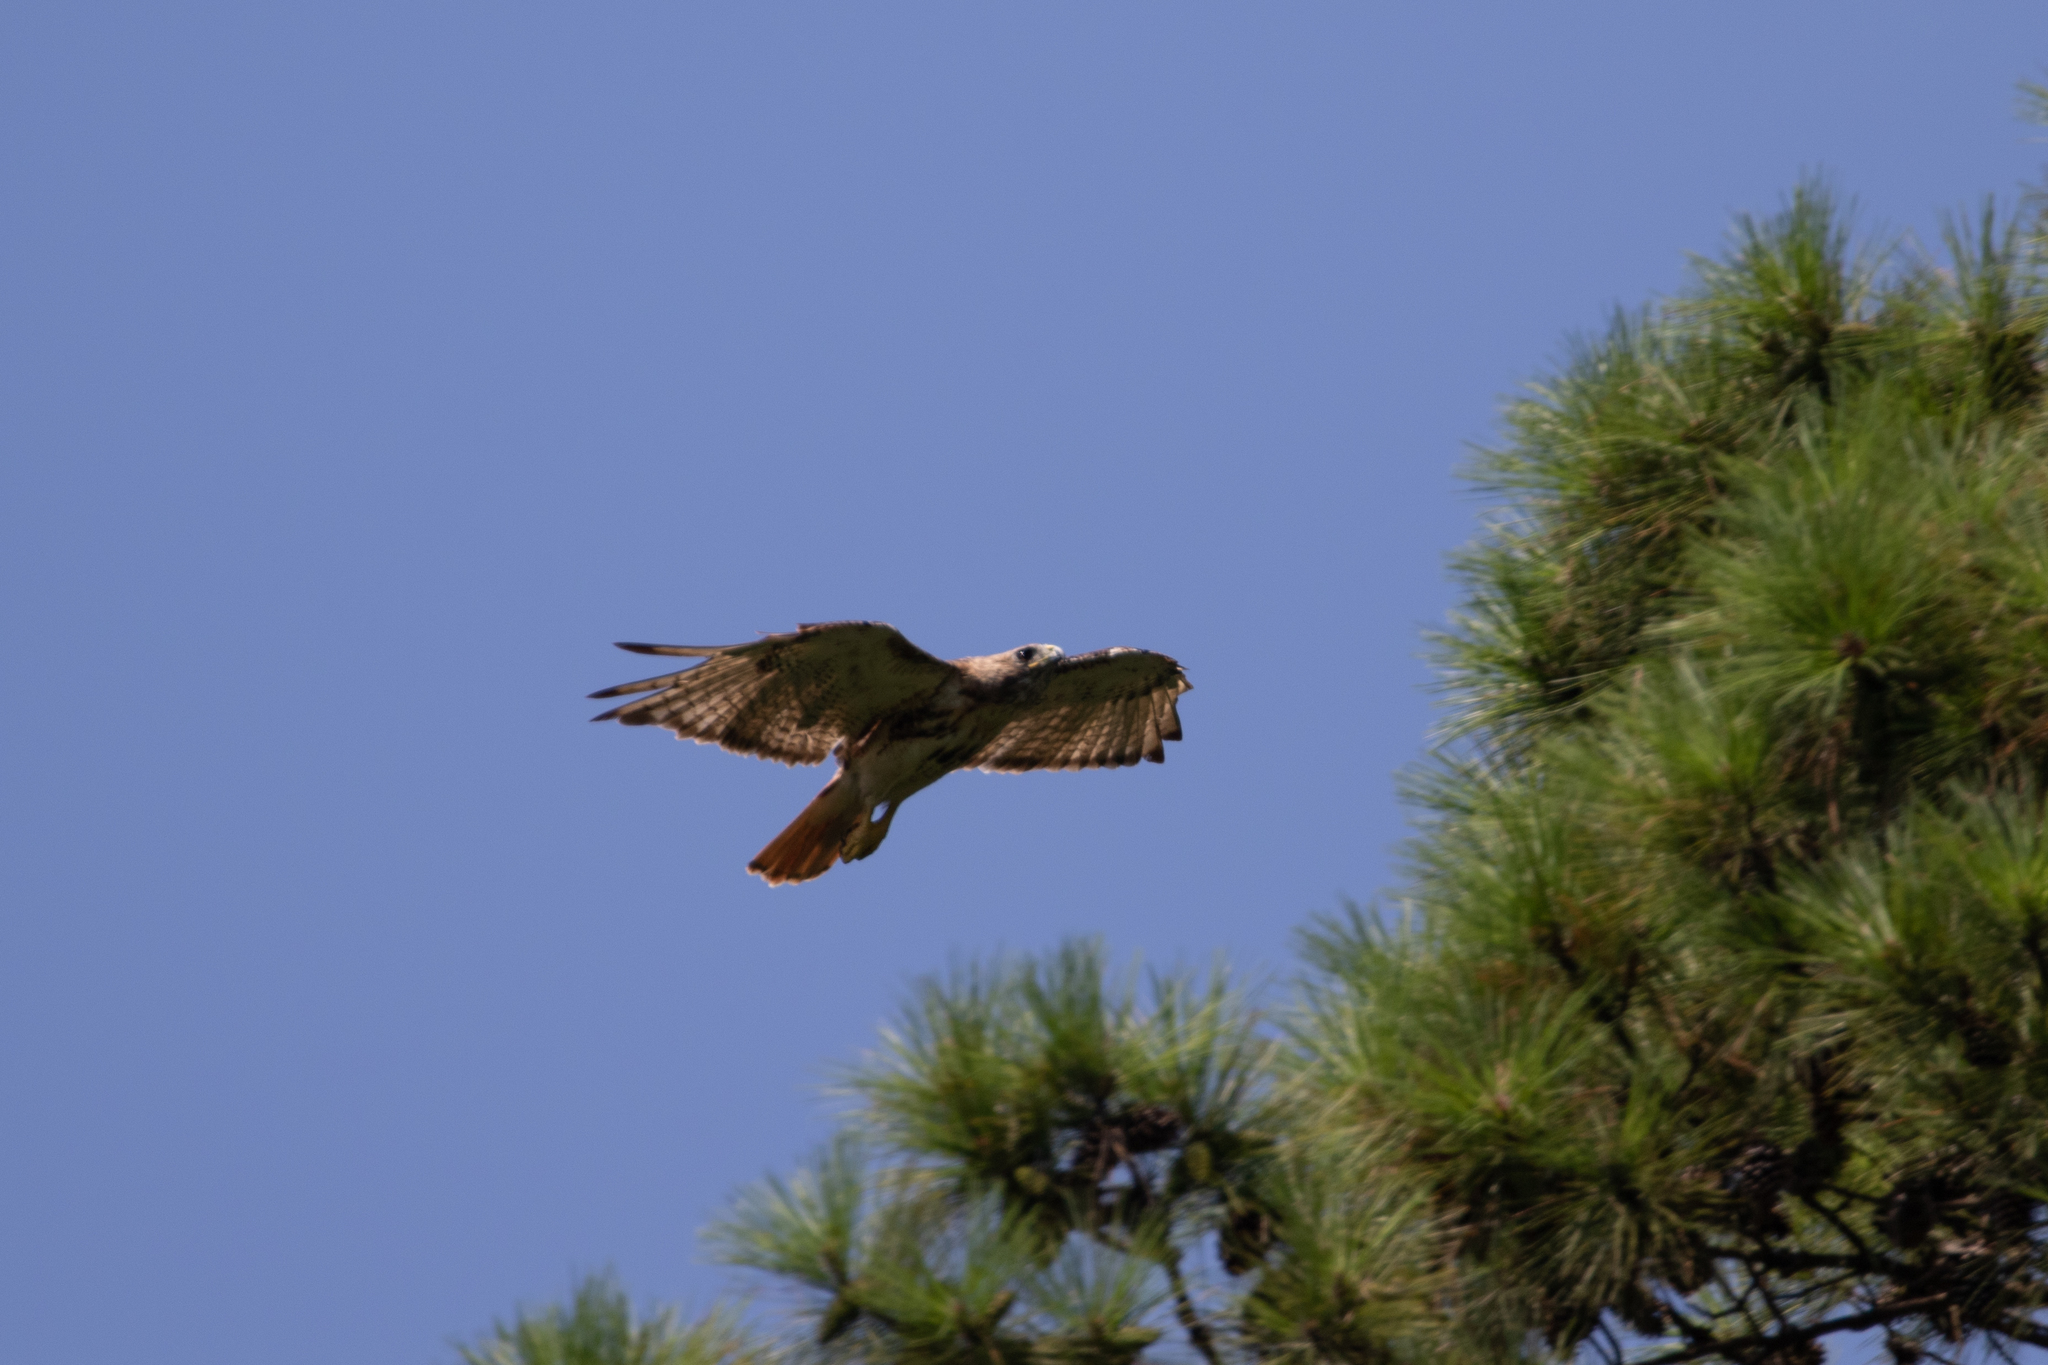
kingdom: Animalia
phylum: Chordata
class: Aves
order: Accipitriformes
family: Accipitridae
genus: Buteo
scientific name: Buteo jamaicensis
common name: Red-tailed hawk
